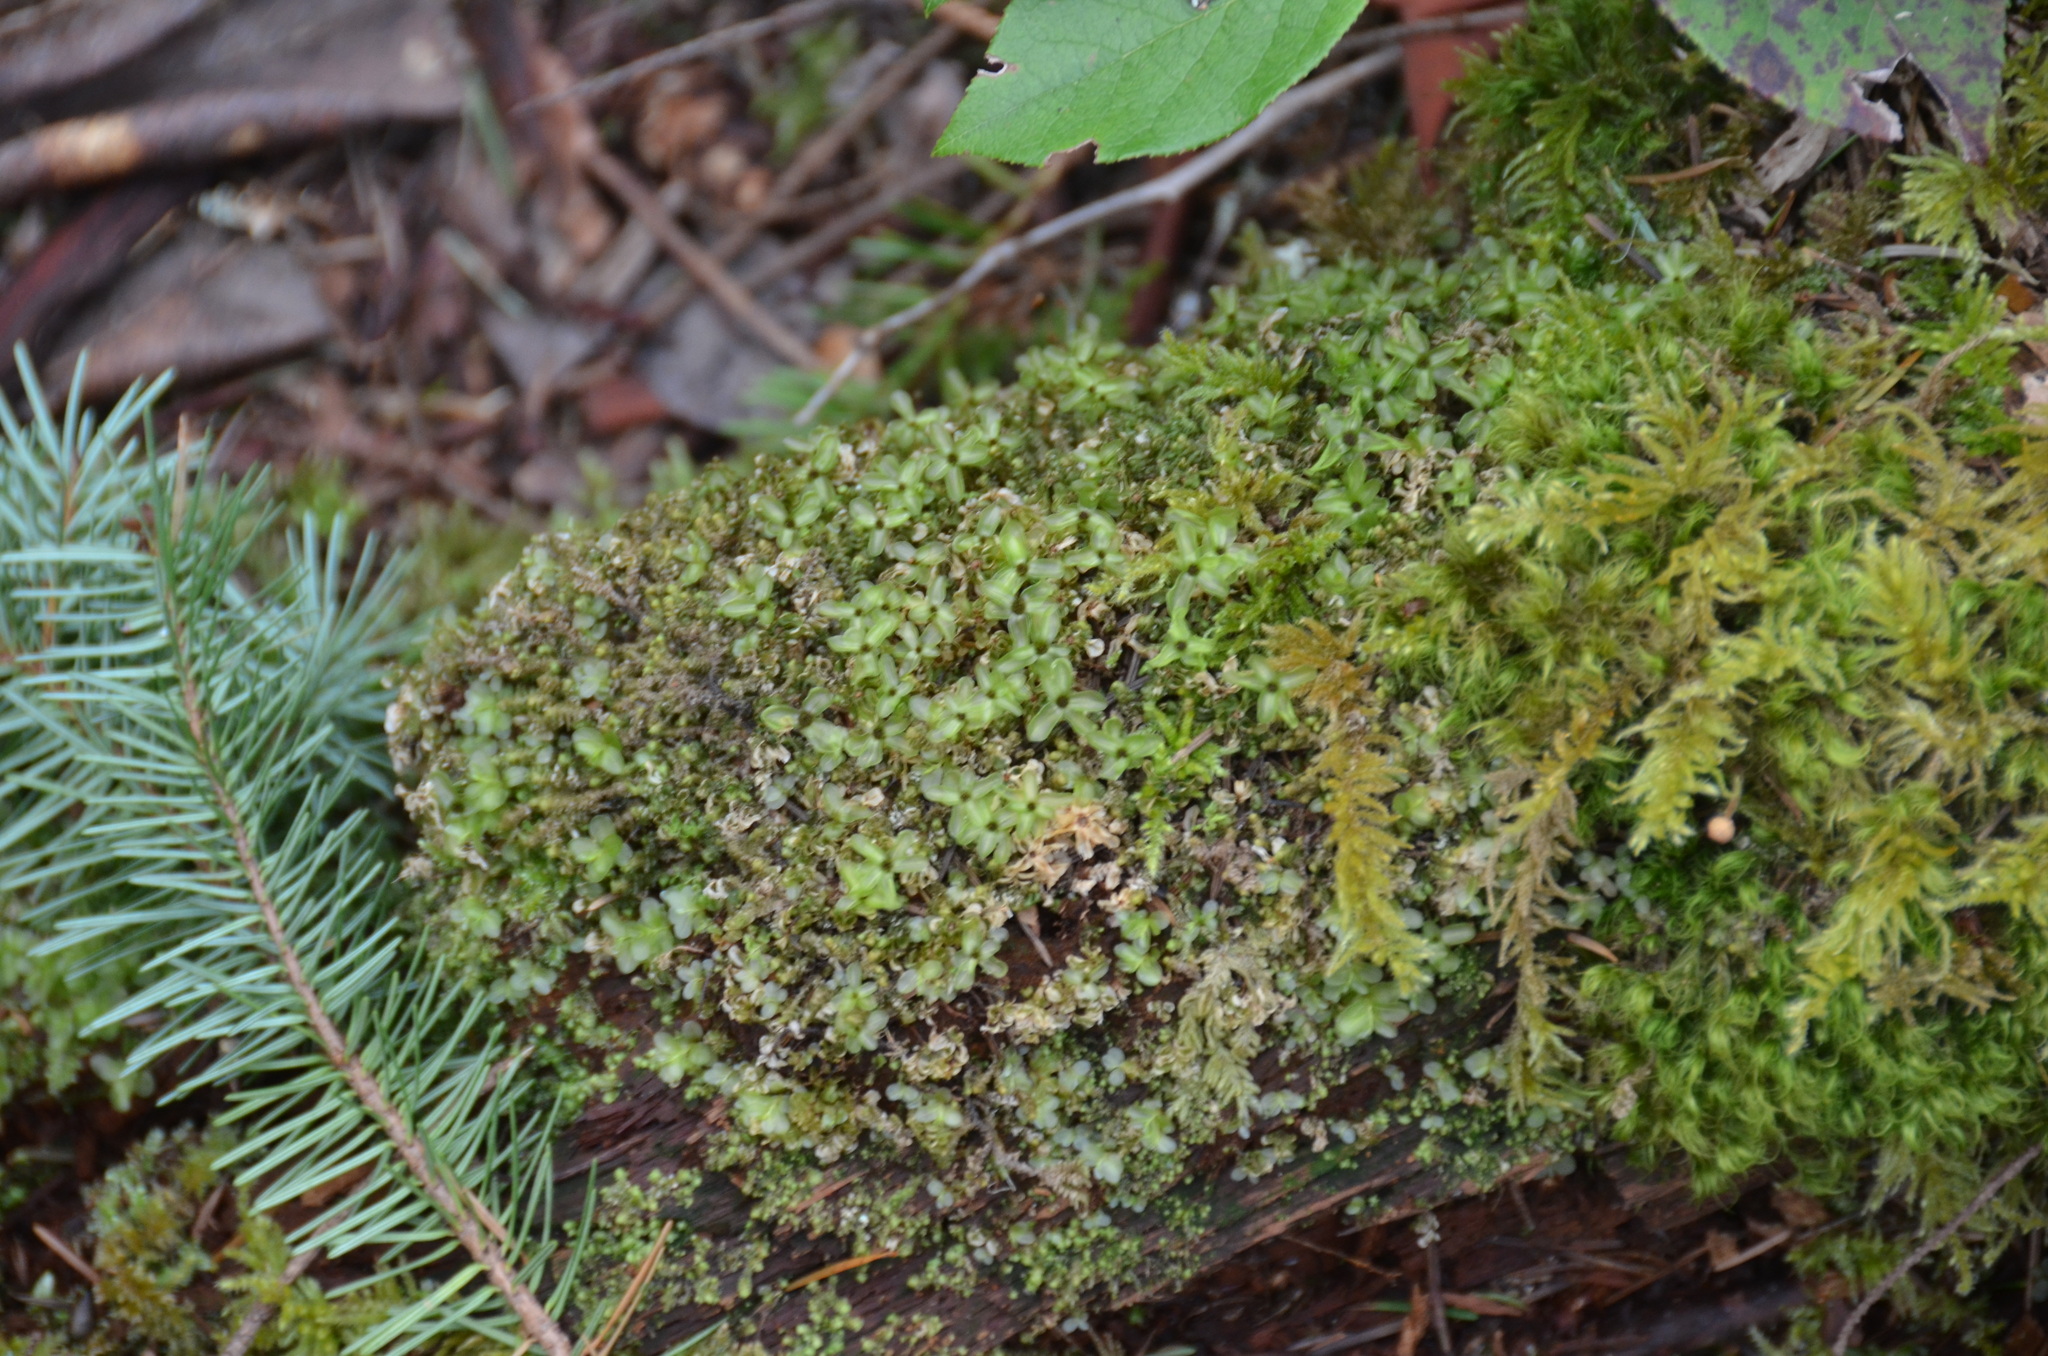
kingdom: Plantae
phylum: Bryophyta
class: Bryopsida
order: Bryales
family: Mniaceae
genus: Rhizomnium
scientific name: Rhizomnium glabrescens
